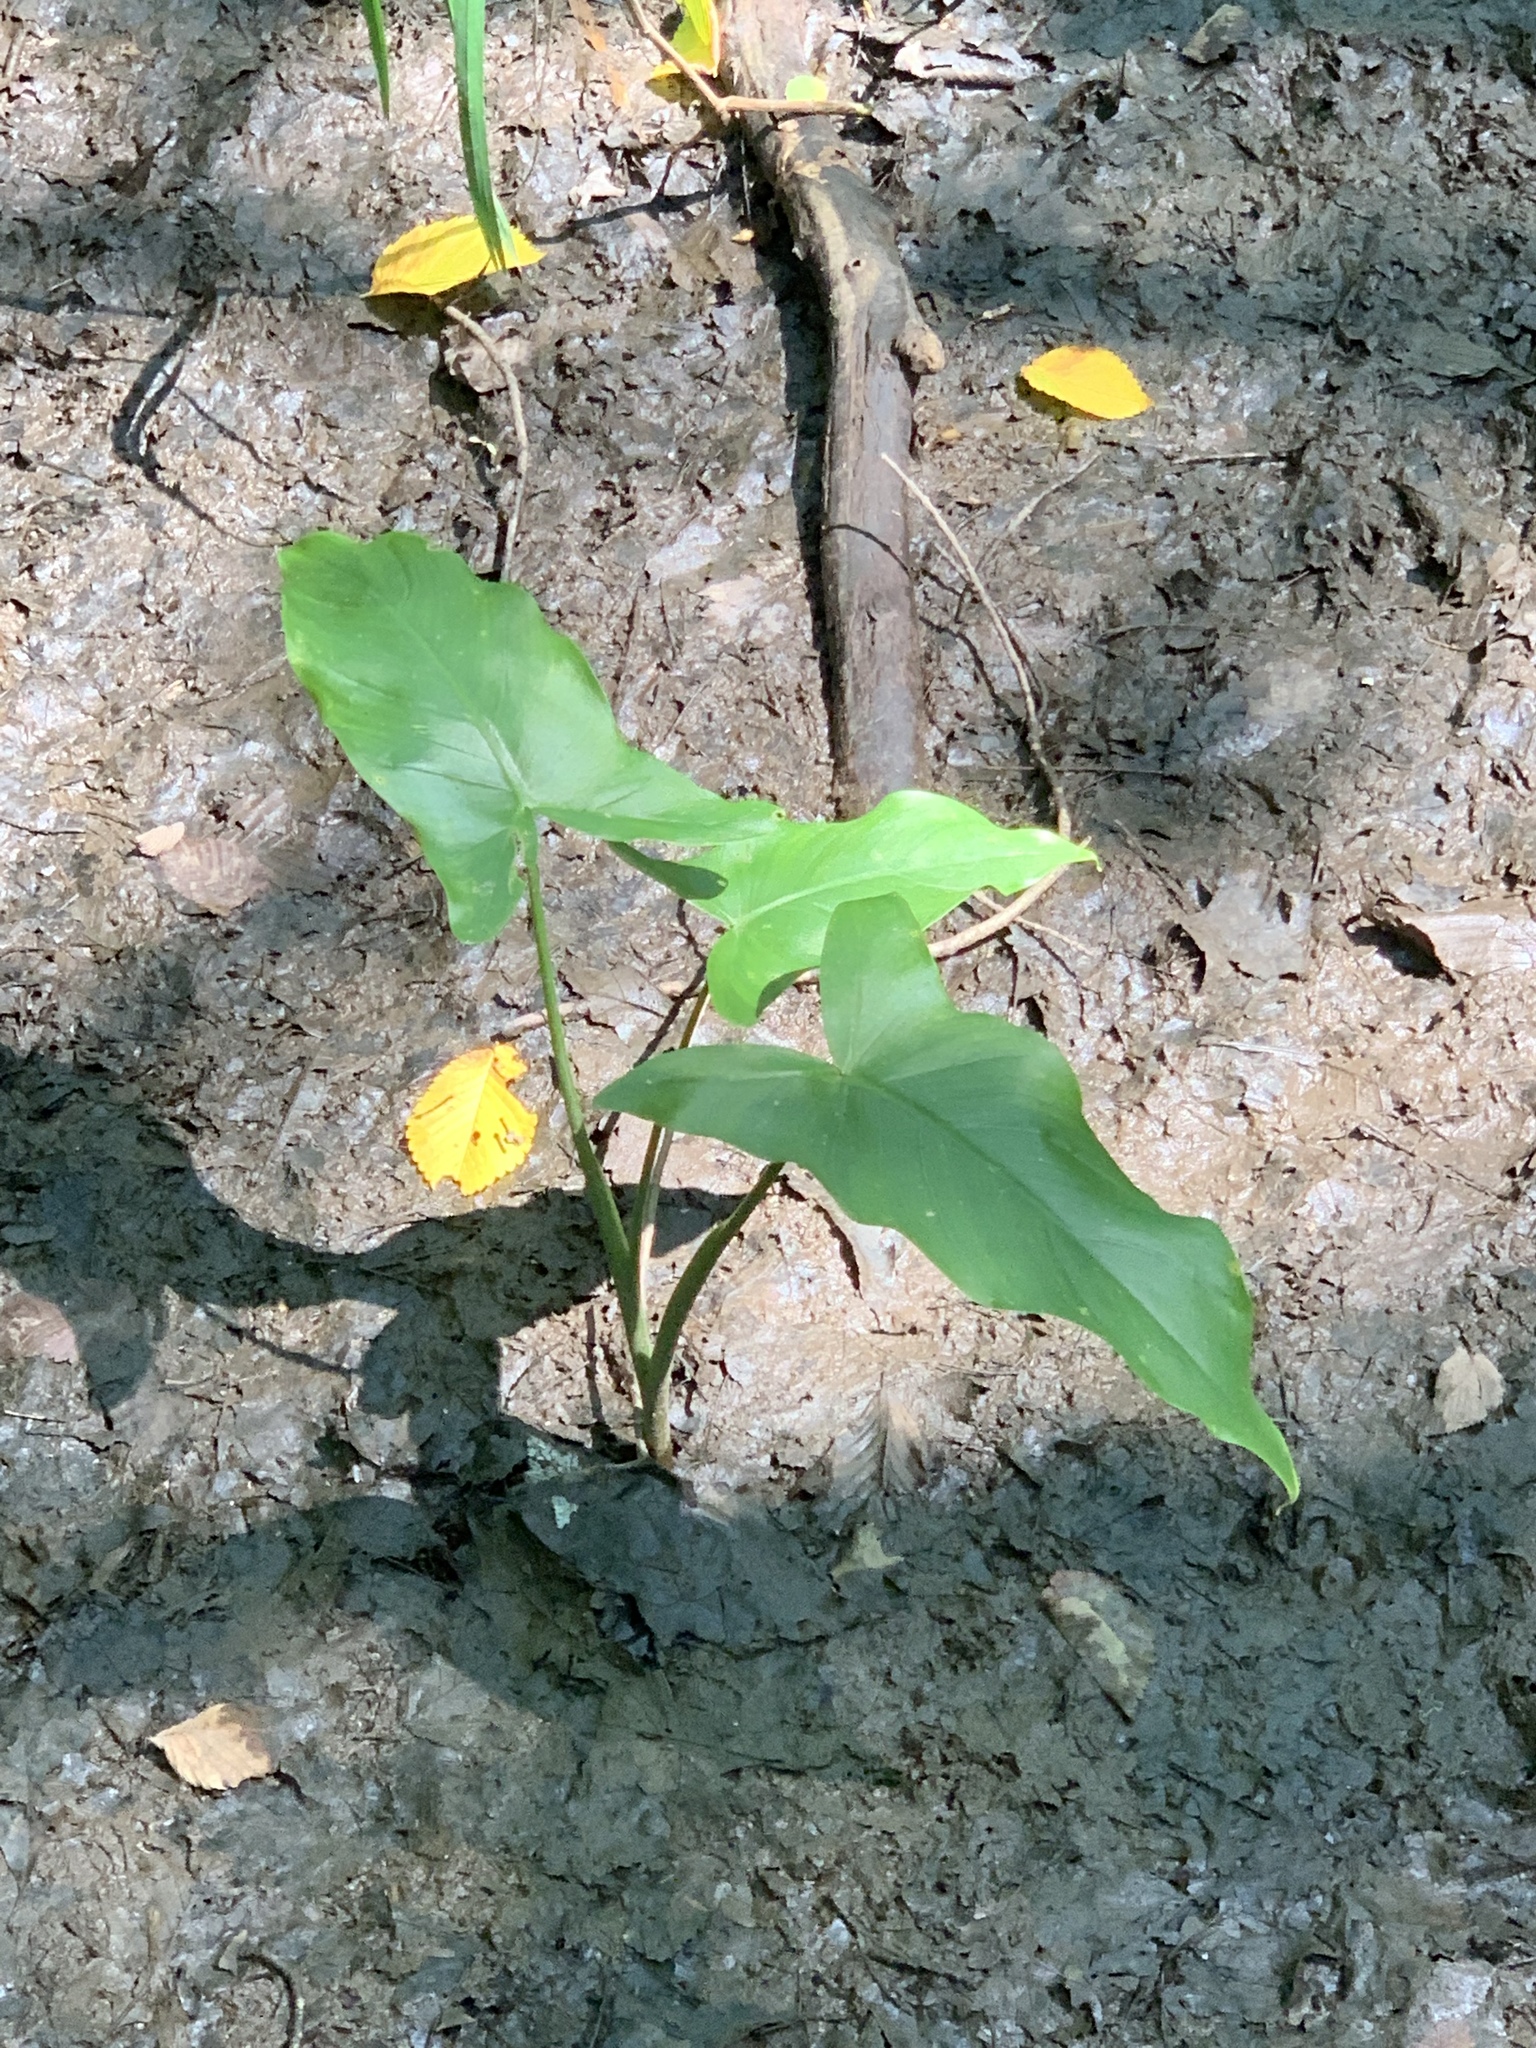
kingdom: Plantae
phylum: Tracheophyta
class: Liliopsida
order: Alismatales
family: Araceae
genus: Peltandra
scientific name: Peltandra virginica
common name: Arrow arum
